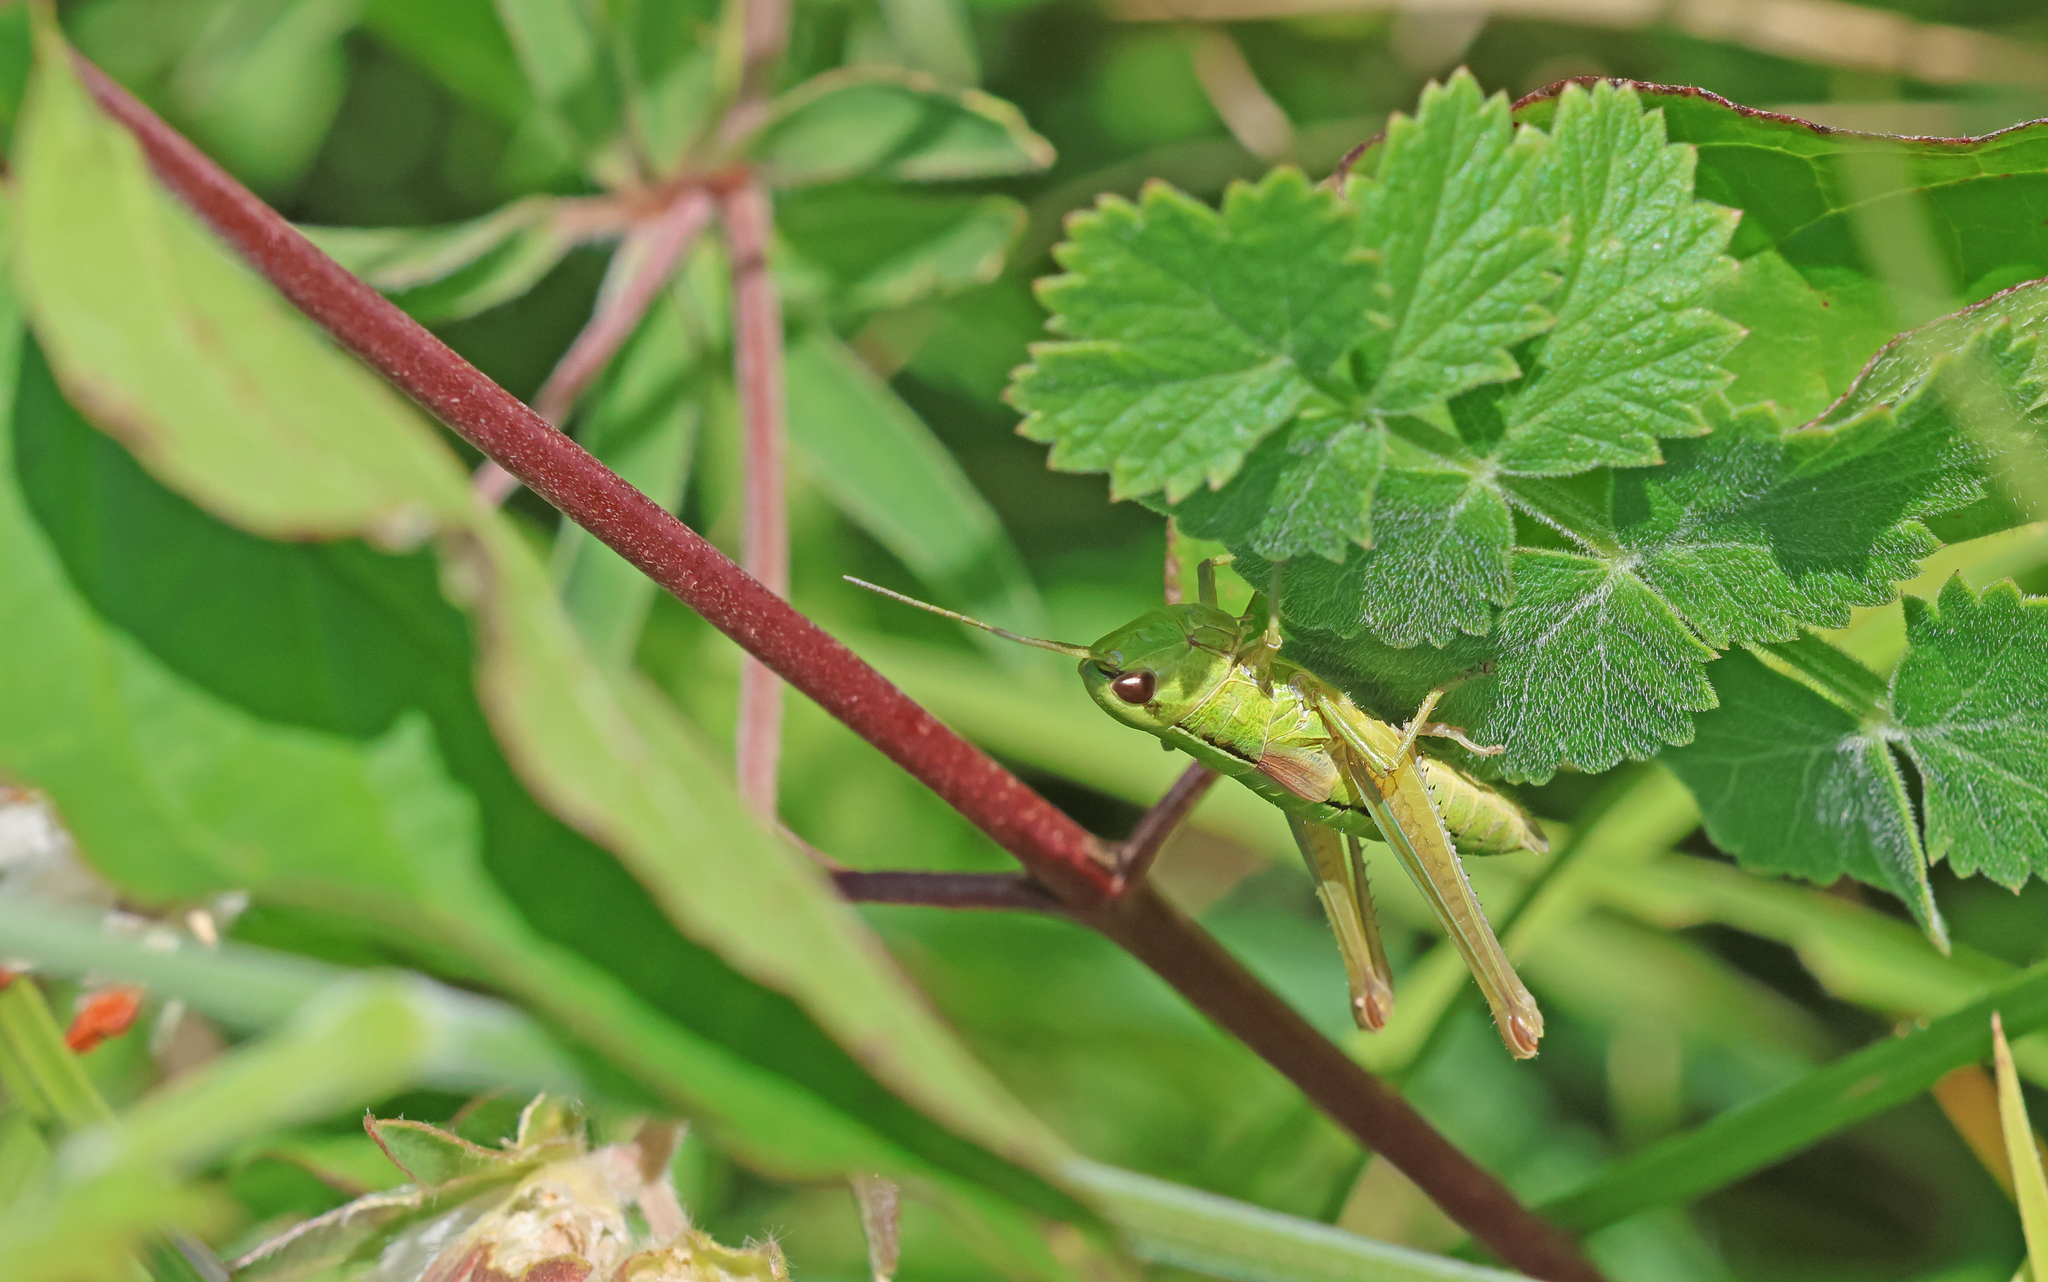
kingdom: Animalia
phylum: Arthropoda
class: Insecta
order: Orthoptera
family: Acrididae
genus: Euthystira
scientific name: Euthystira brachyptera
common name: Small gold grasshopper
